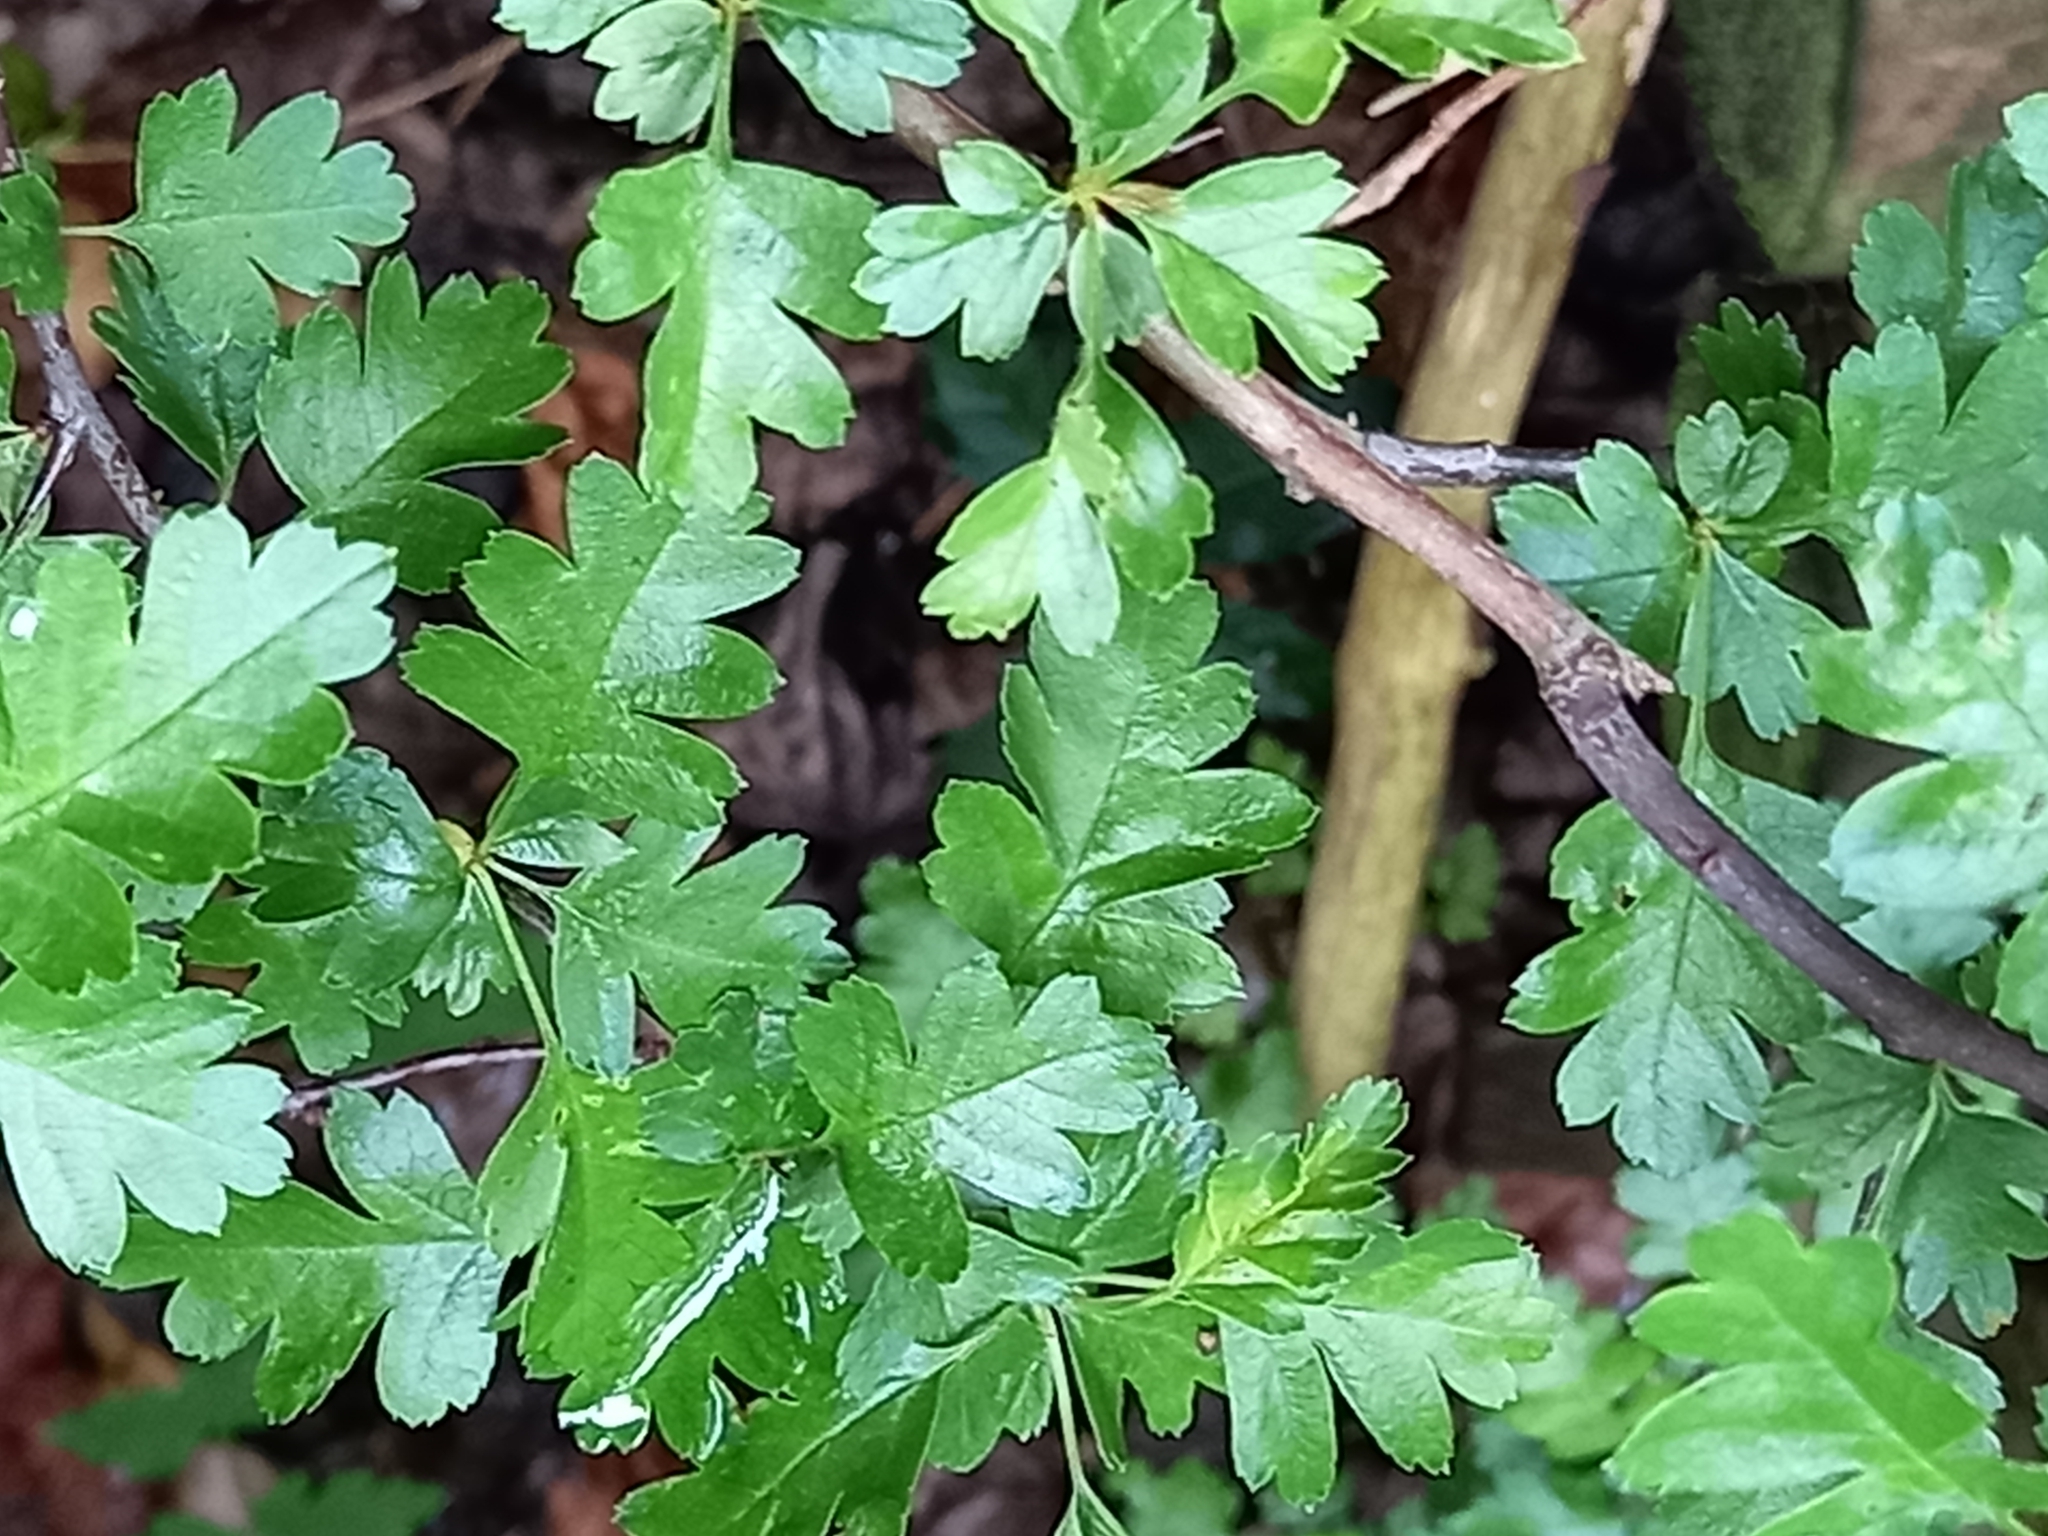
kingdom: Plantae
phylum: Tracheophyta
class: Magnoliopsida
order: Rosales
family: Rosaceae
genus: Crataegus
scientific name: Crataegus monogyna
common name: Hawthorn
